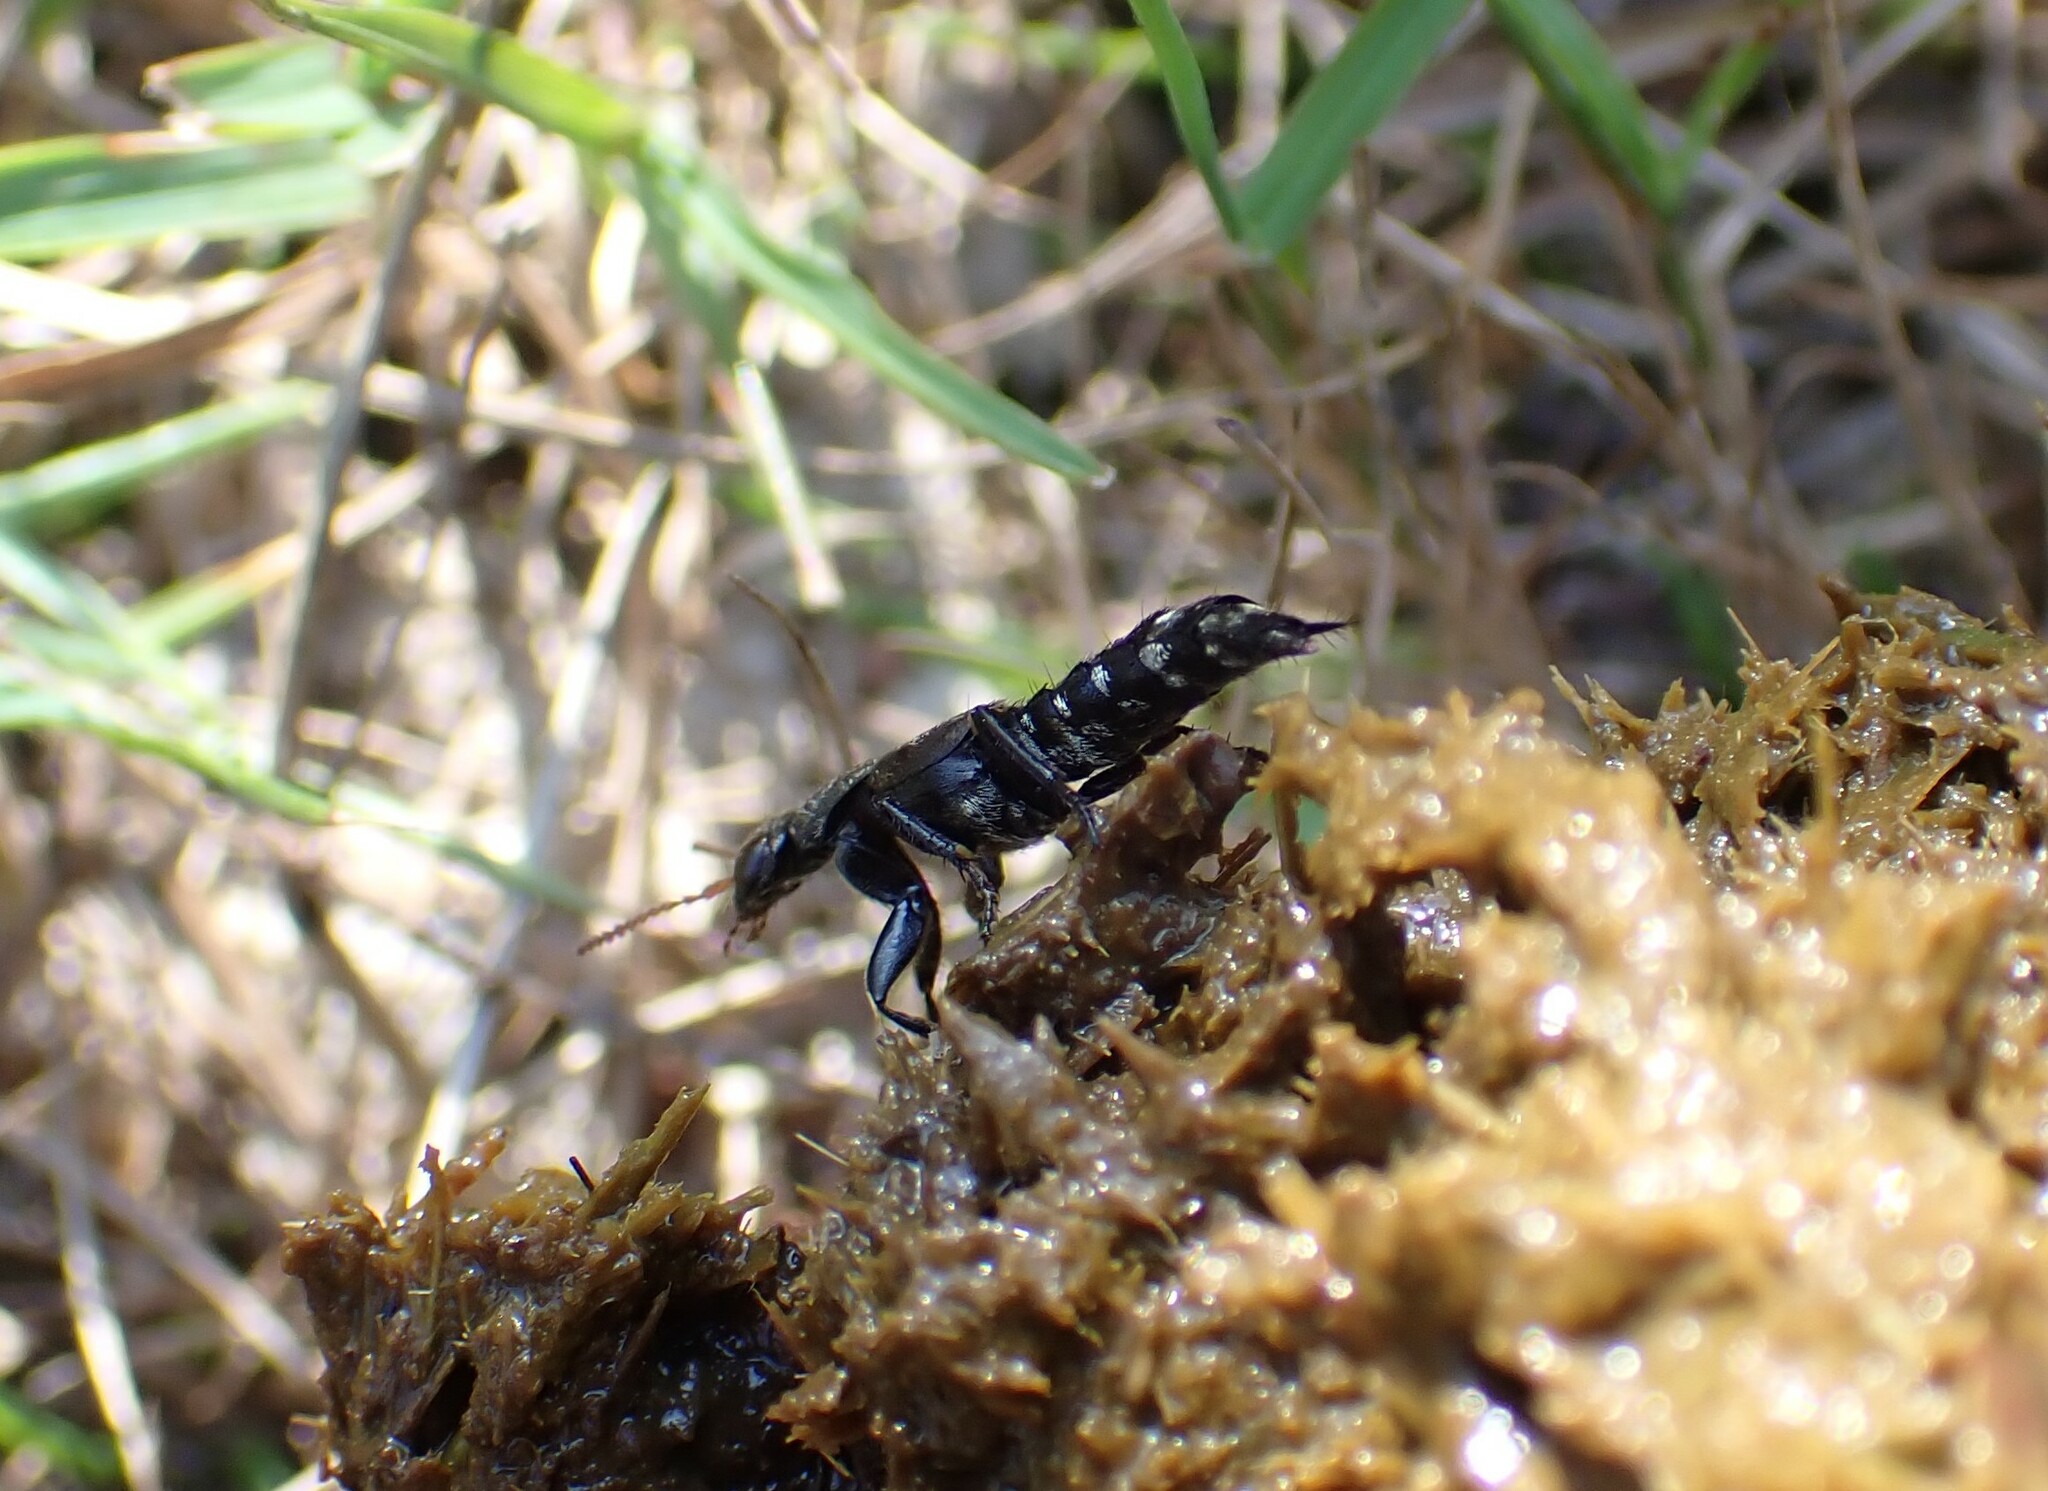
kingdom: Animalia
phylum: Arthropoda
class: Insecta
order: Coleoptera
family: Staphylinidae
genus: Ontholestes
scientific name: Ontholestes murinus
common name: Staph beetle
